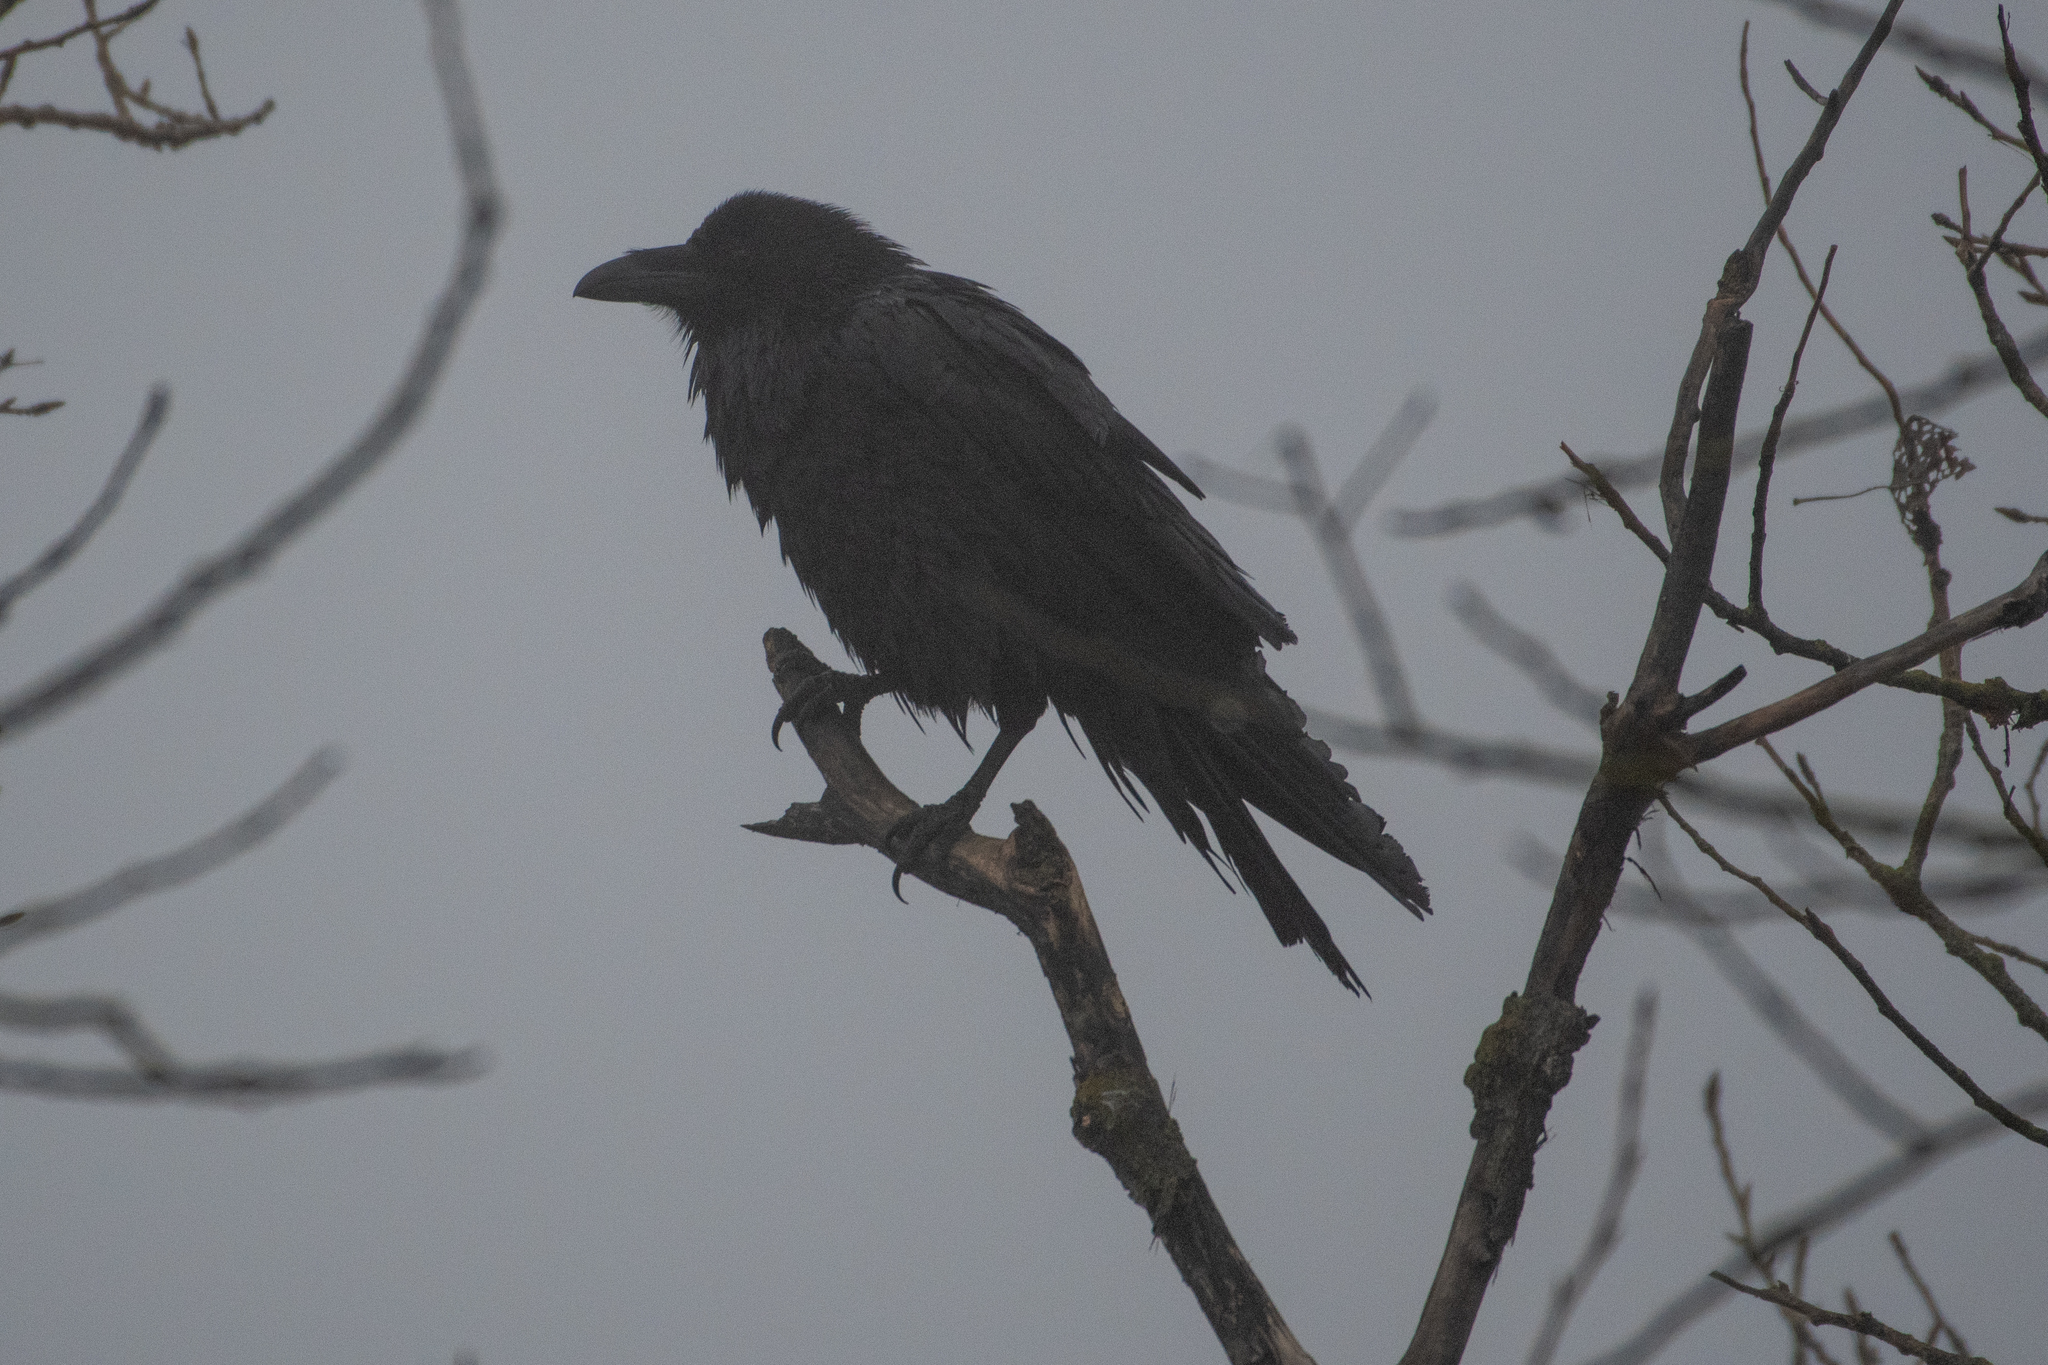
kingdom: Animalia
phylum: Chordata
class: Aves
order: Passeriformes
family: Corvidae
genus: Corvus
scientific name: Corvus corax
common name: Common raven
